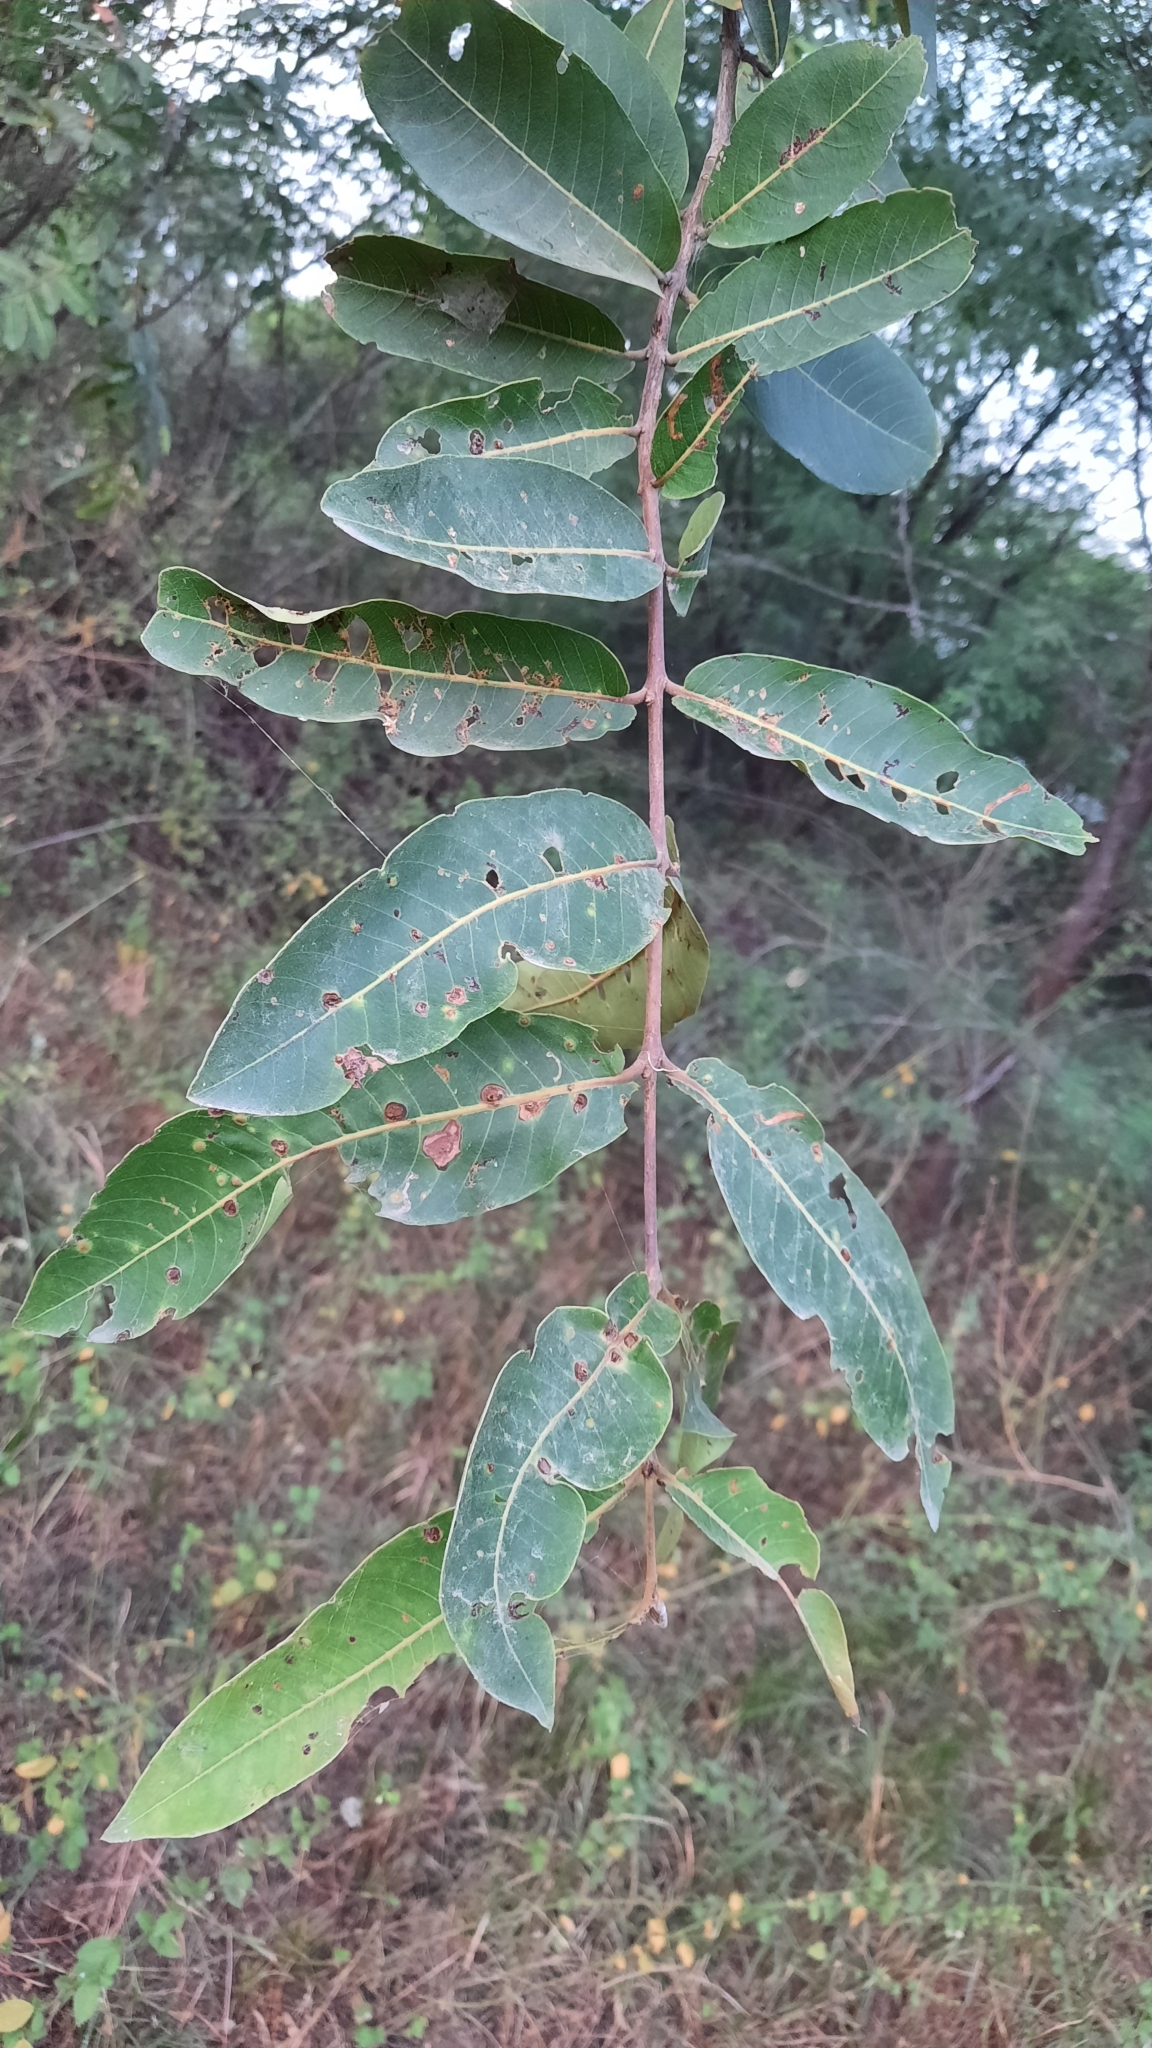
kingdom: Plantae
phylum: Tracheophyta
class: Magnoliopsida
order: Myrtales
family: Combretaceae
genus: Terminalia
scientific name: Terminalia arjuna
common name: Arjun
